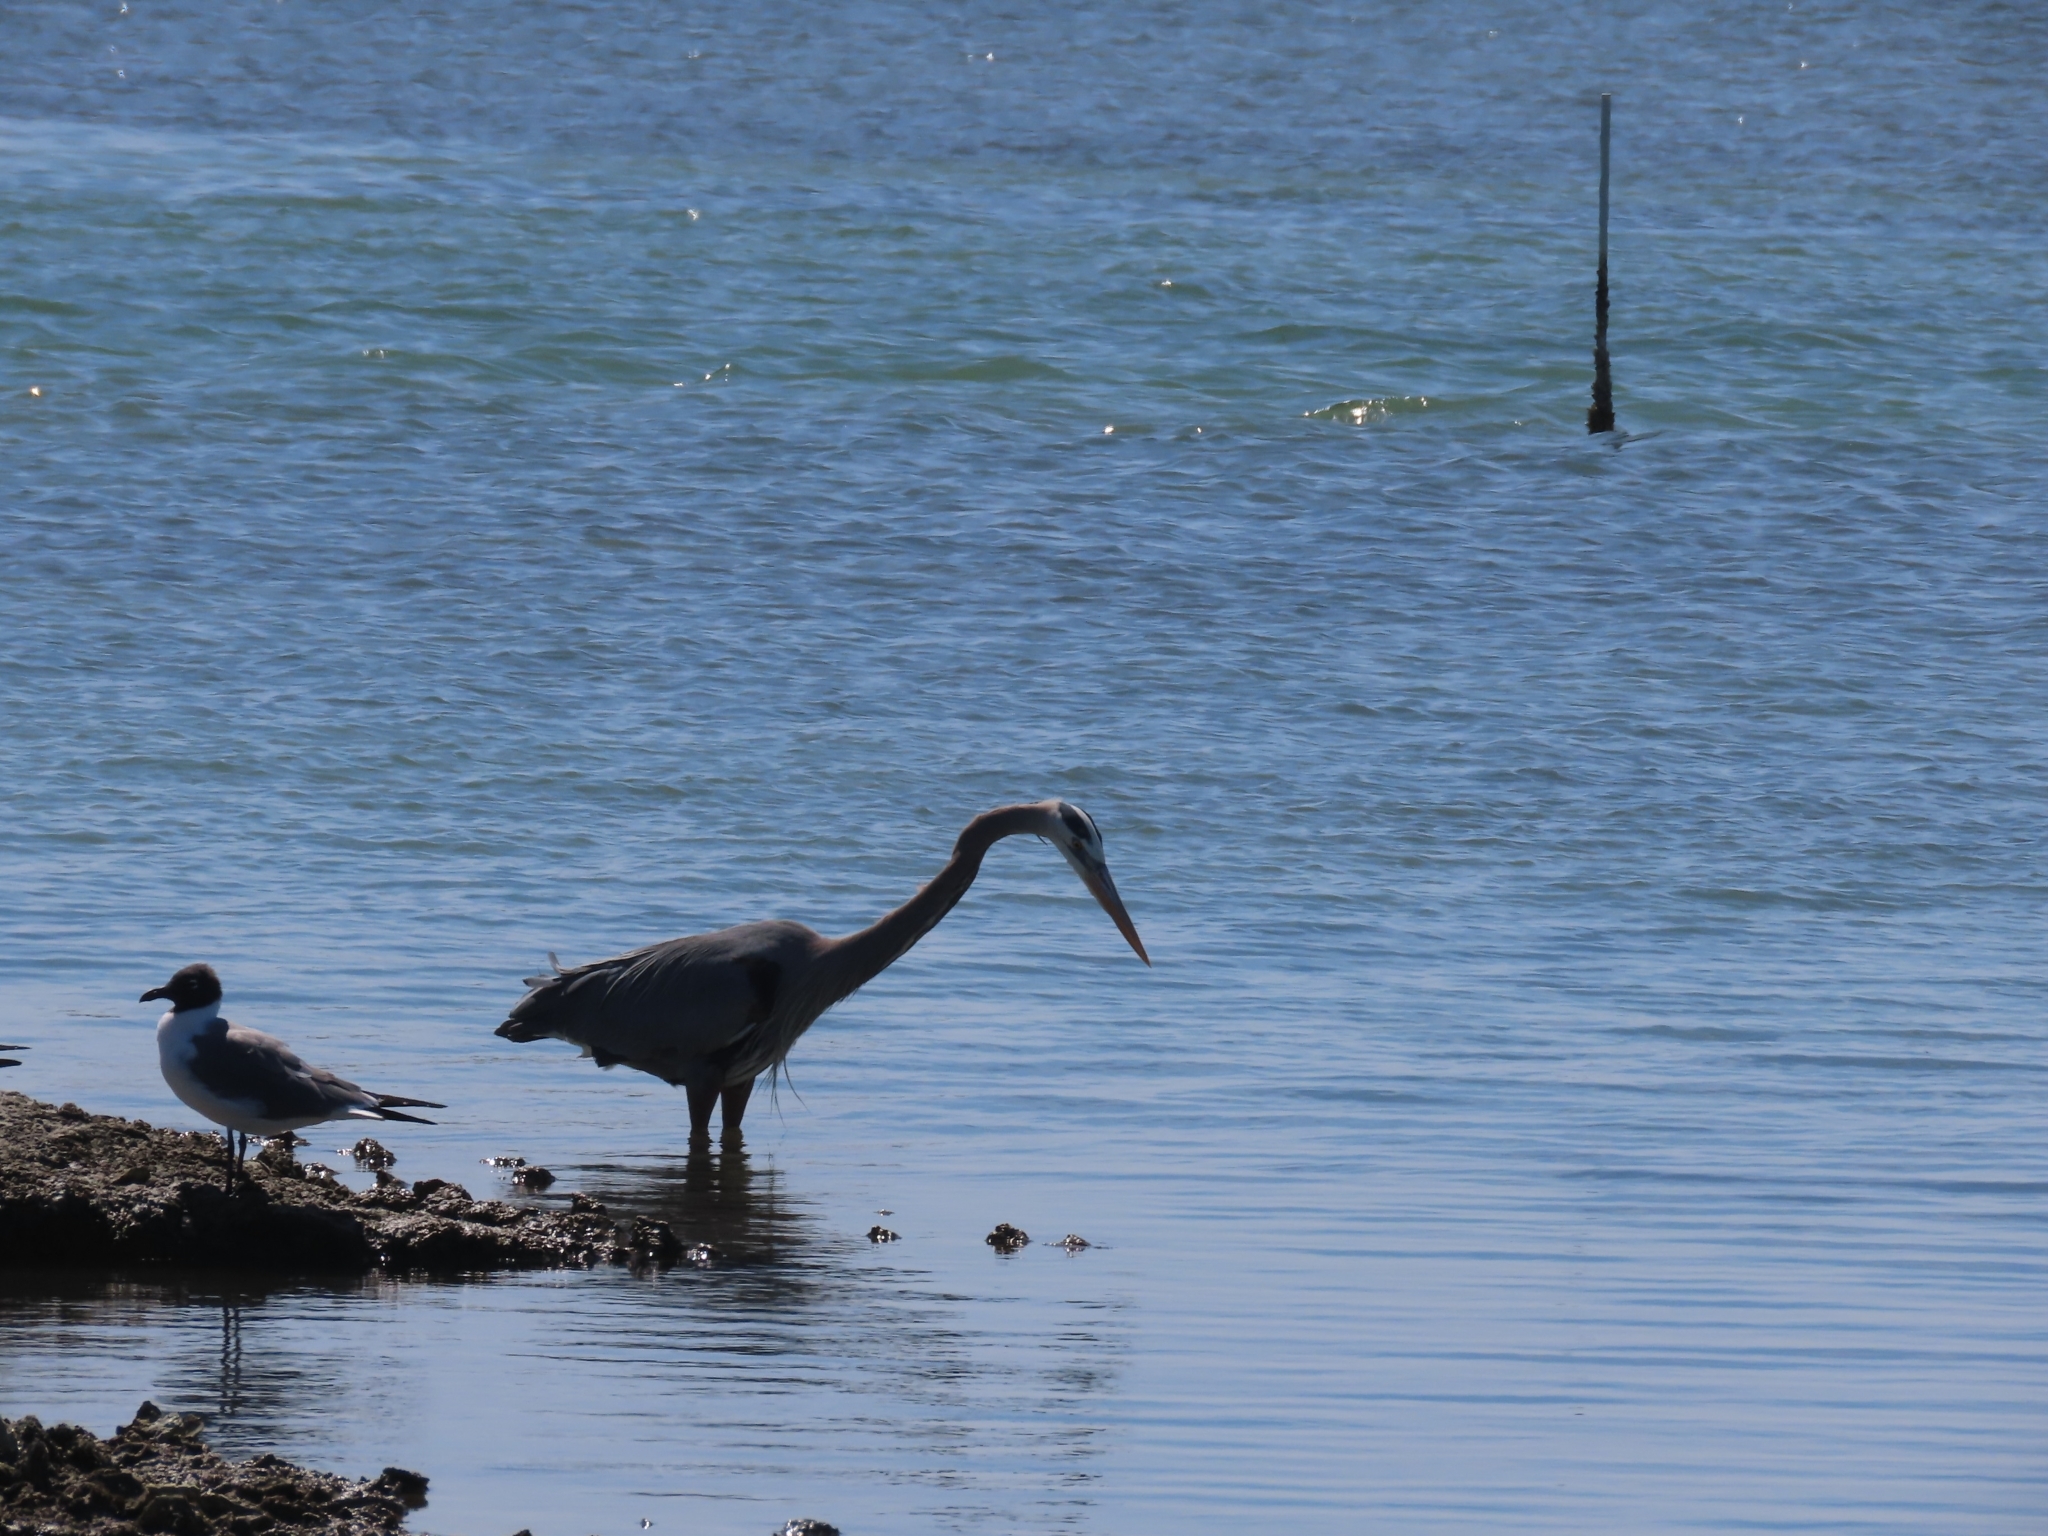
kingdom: Animalia
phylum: Chordata
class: Aves
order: Pelecaniformes
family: Ardeidae
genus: Ardea
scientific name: Ardea herodias
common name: Great blue heron
